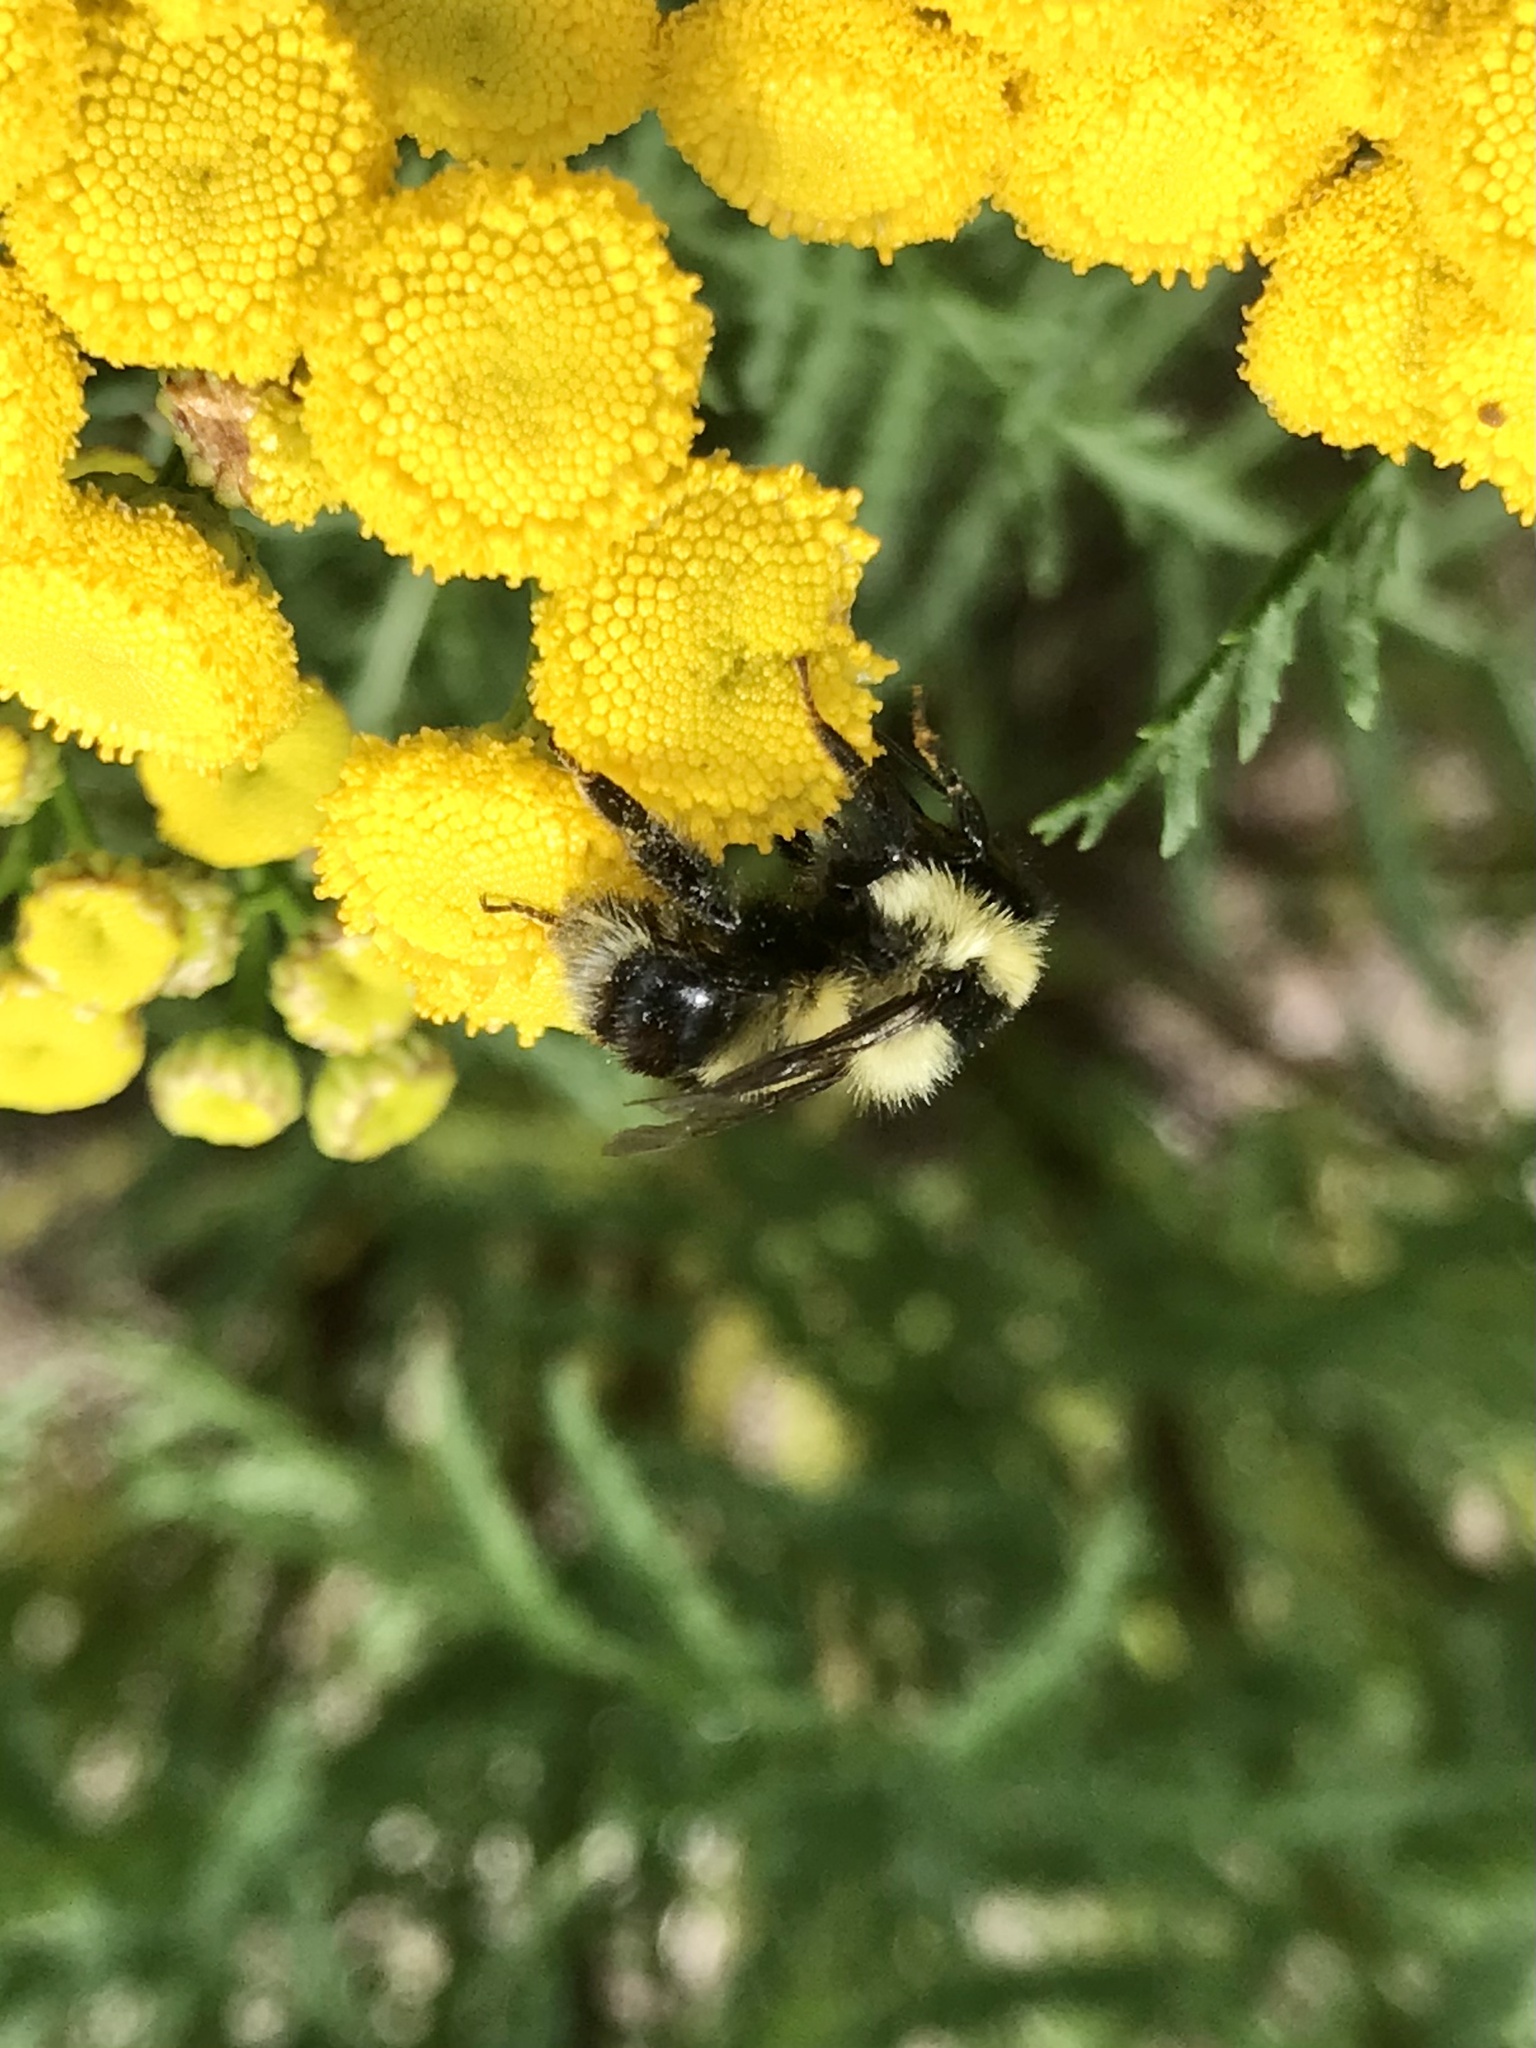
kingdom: Animalia
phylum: Arthropoda
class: Insecta
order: Hymenoptera
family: Apidae
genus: Bombus
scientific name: Bombus rufocinctus
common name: Red-belted bumble bee
